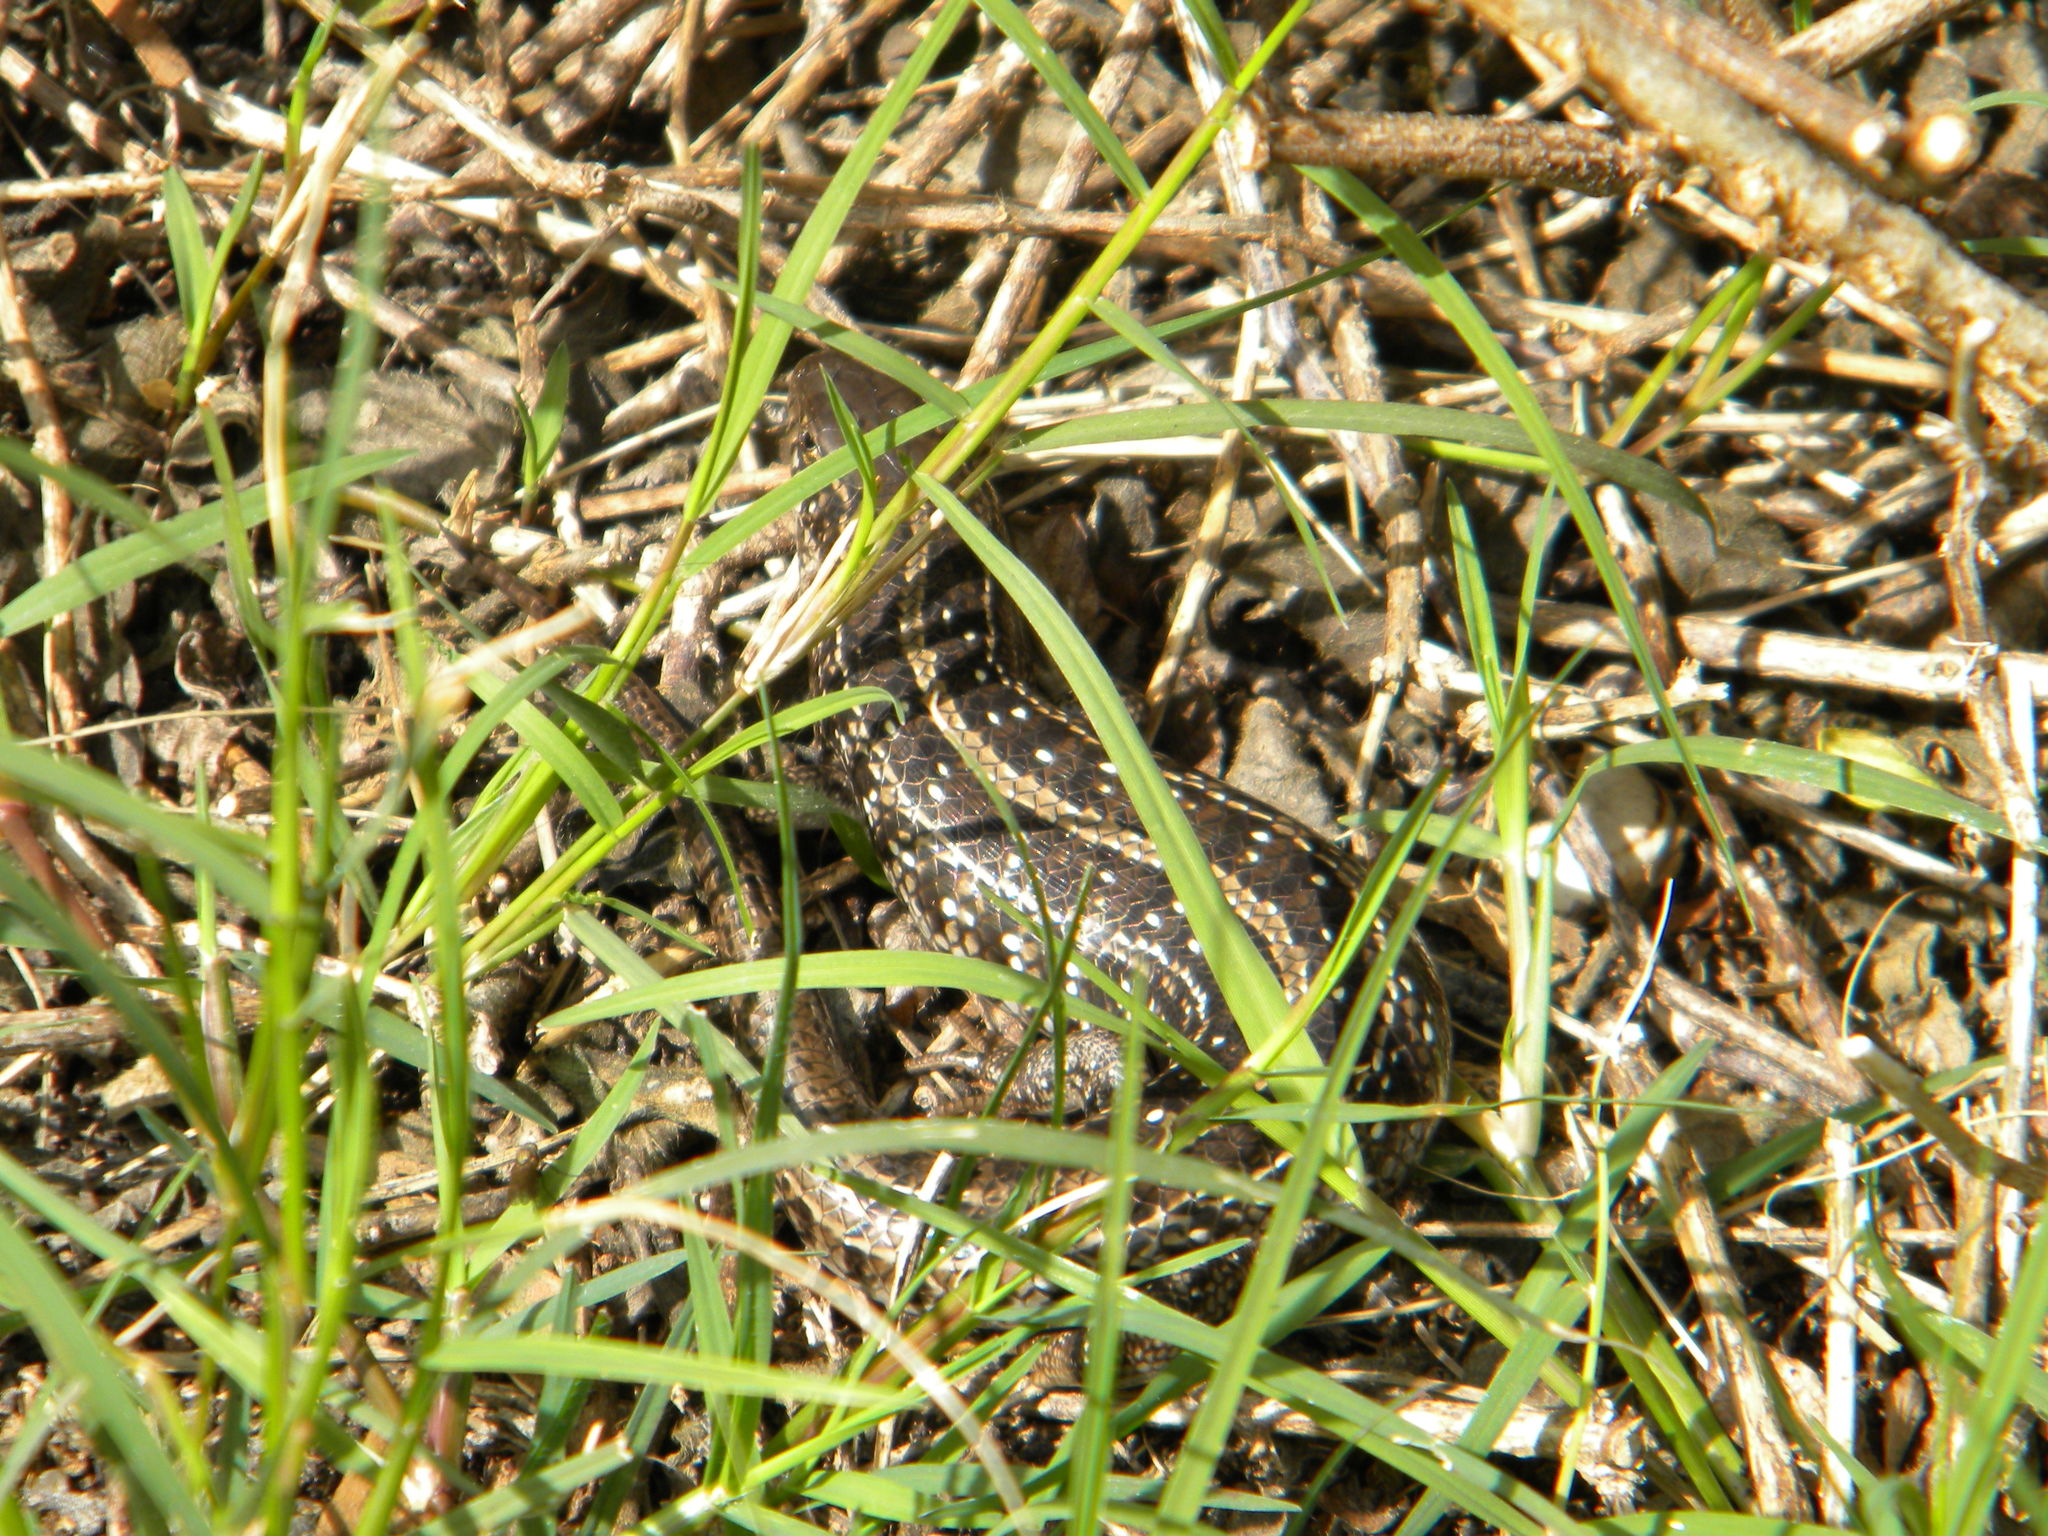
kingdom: Animalia
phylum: Chordata
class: Squamata
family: Scincidae
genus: Trachylepis
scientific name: Trachylepis capensis
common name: Cape skink
